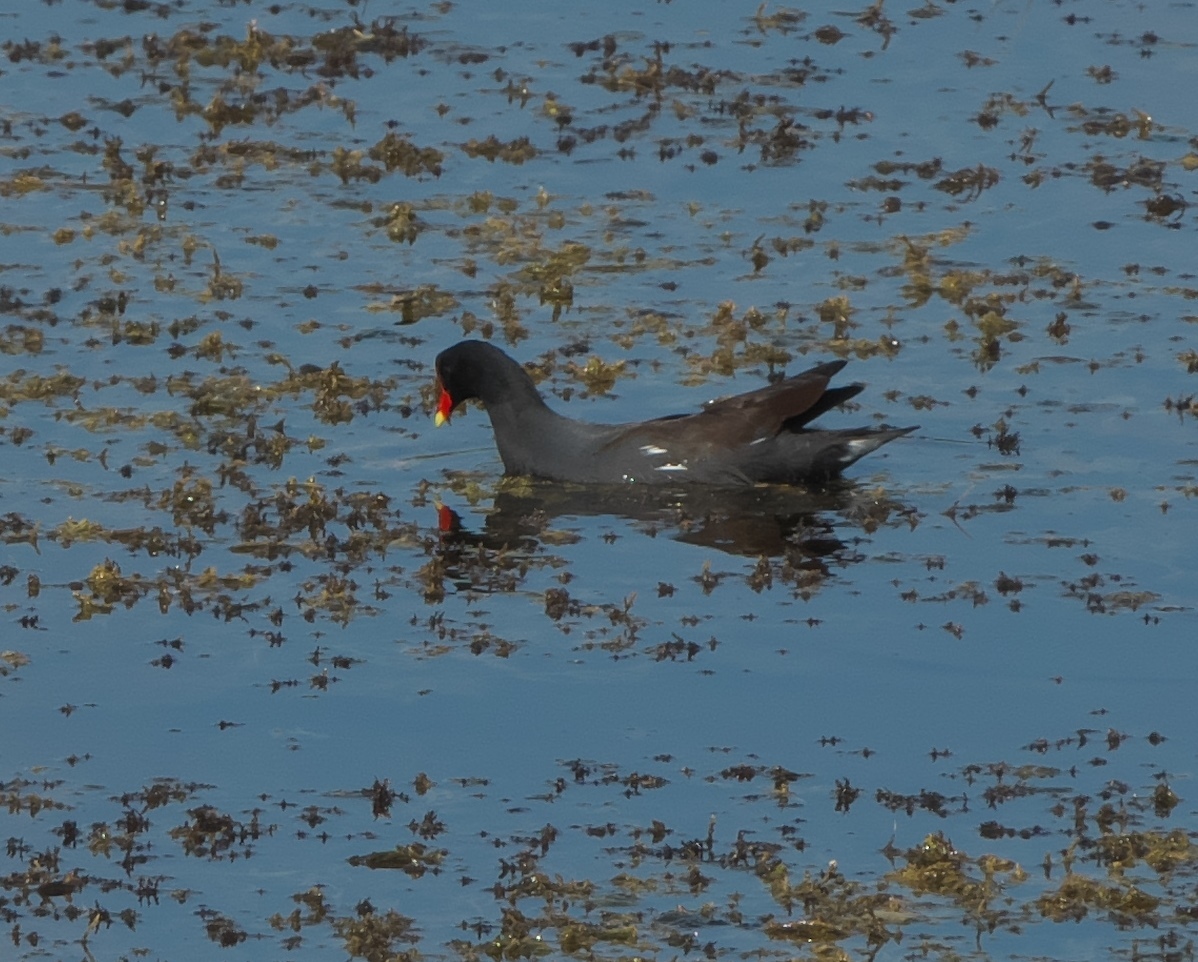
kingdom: Animalia
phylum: Chordata
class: Aves
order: Gruiformes
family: Rallidae
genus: Gallinula
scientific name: Gallinula chloropus
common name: Common moorhen
